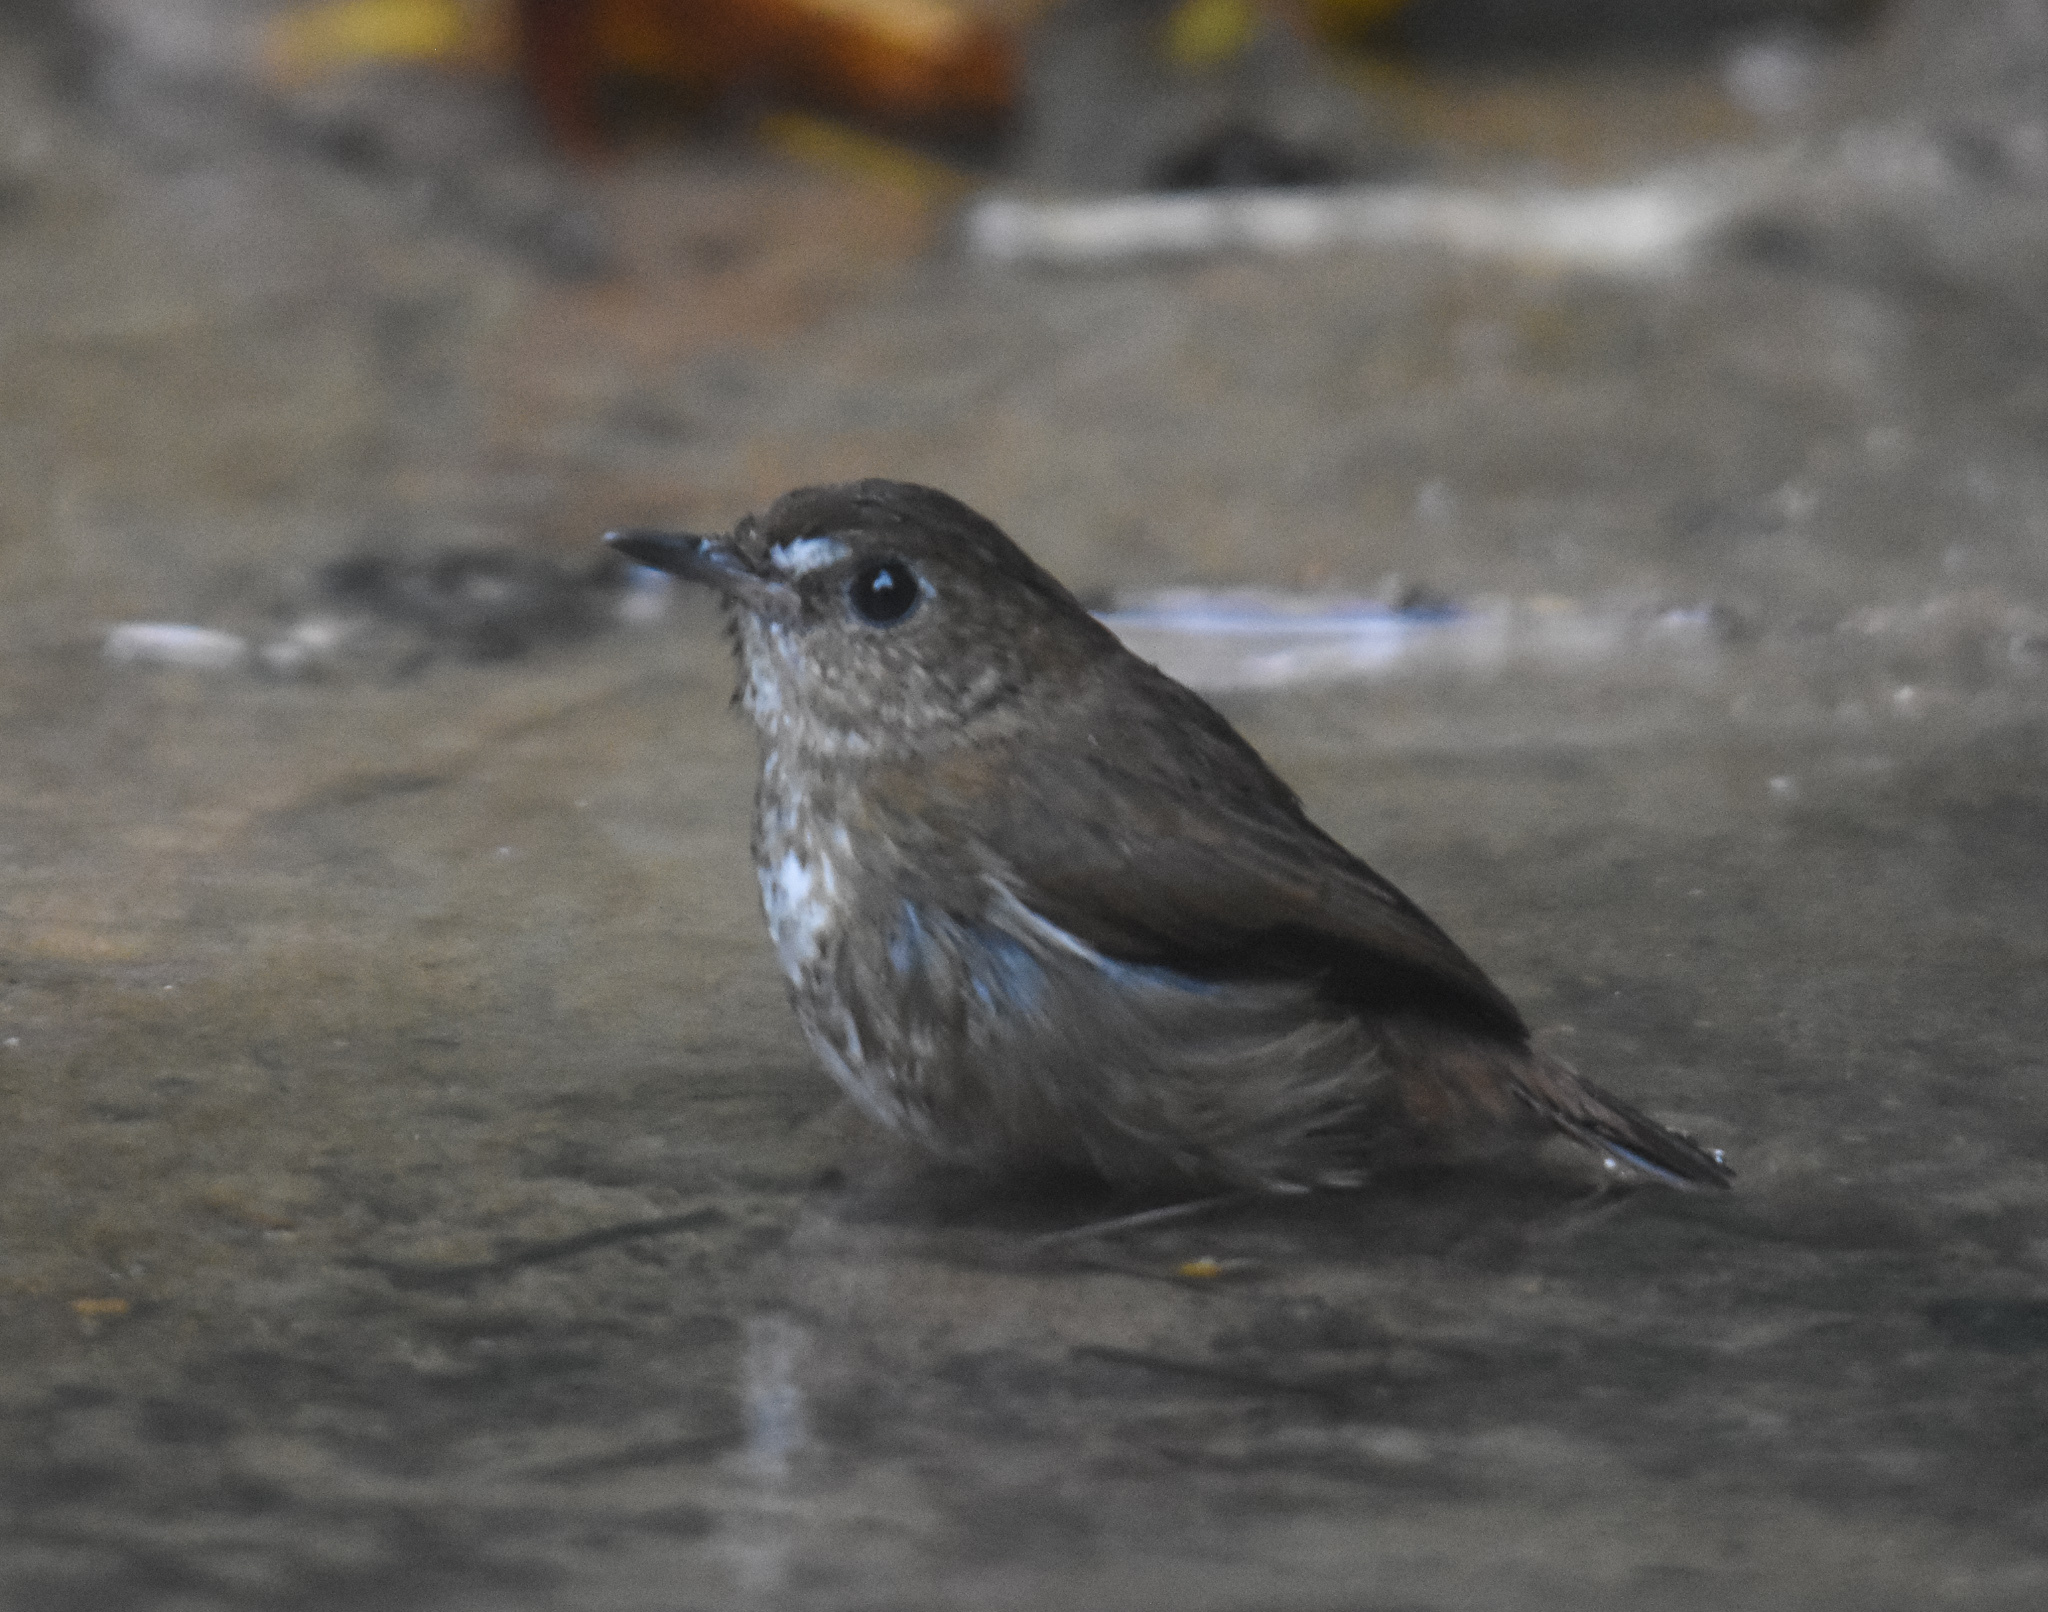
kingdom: Animalia
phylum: Chordata
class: Aves
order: Passeriformes
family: Muscicapidae
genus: Brachypteryx
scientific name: Brachypteryx leucophris
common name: Lesser shortwing
